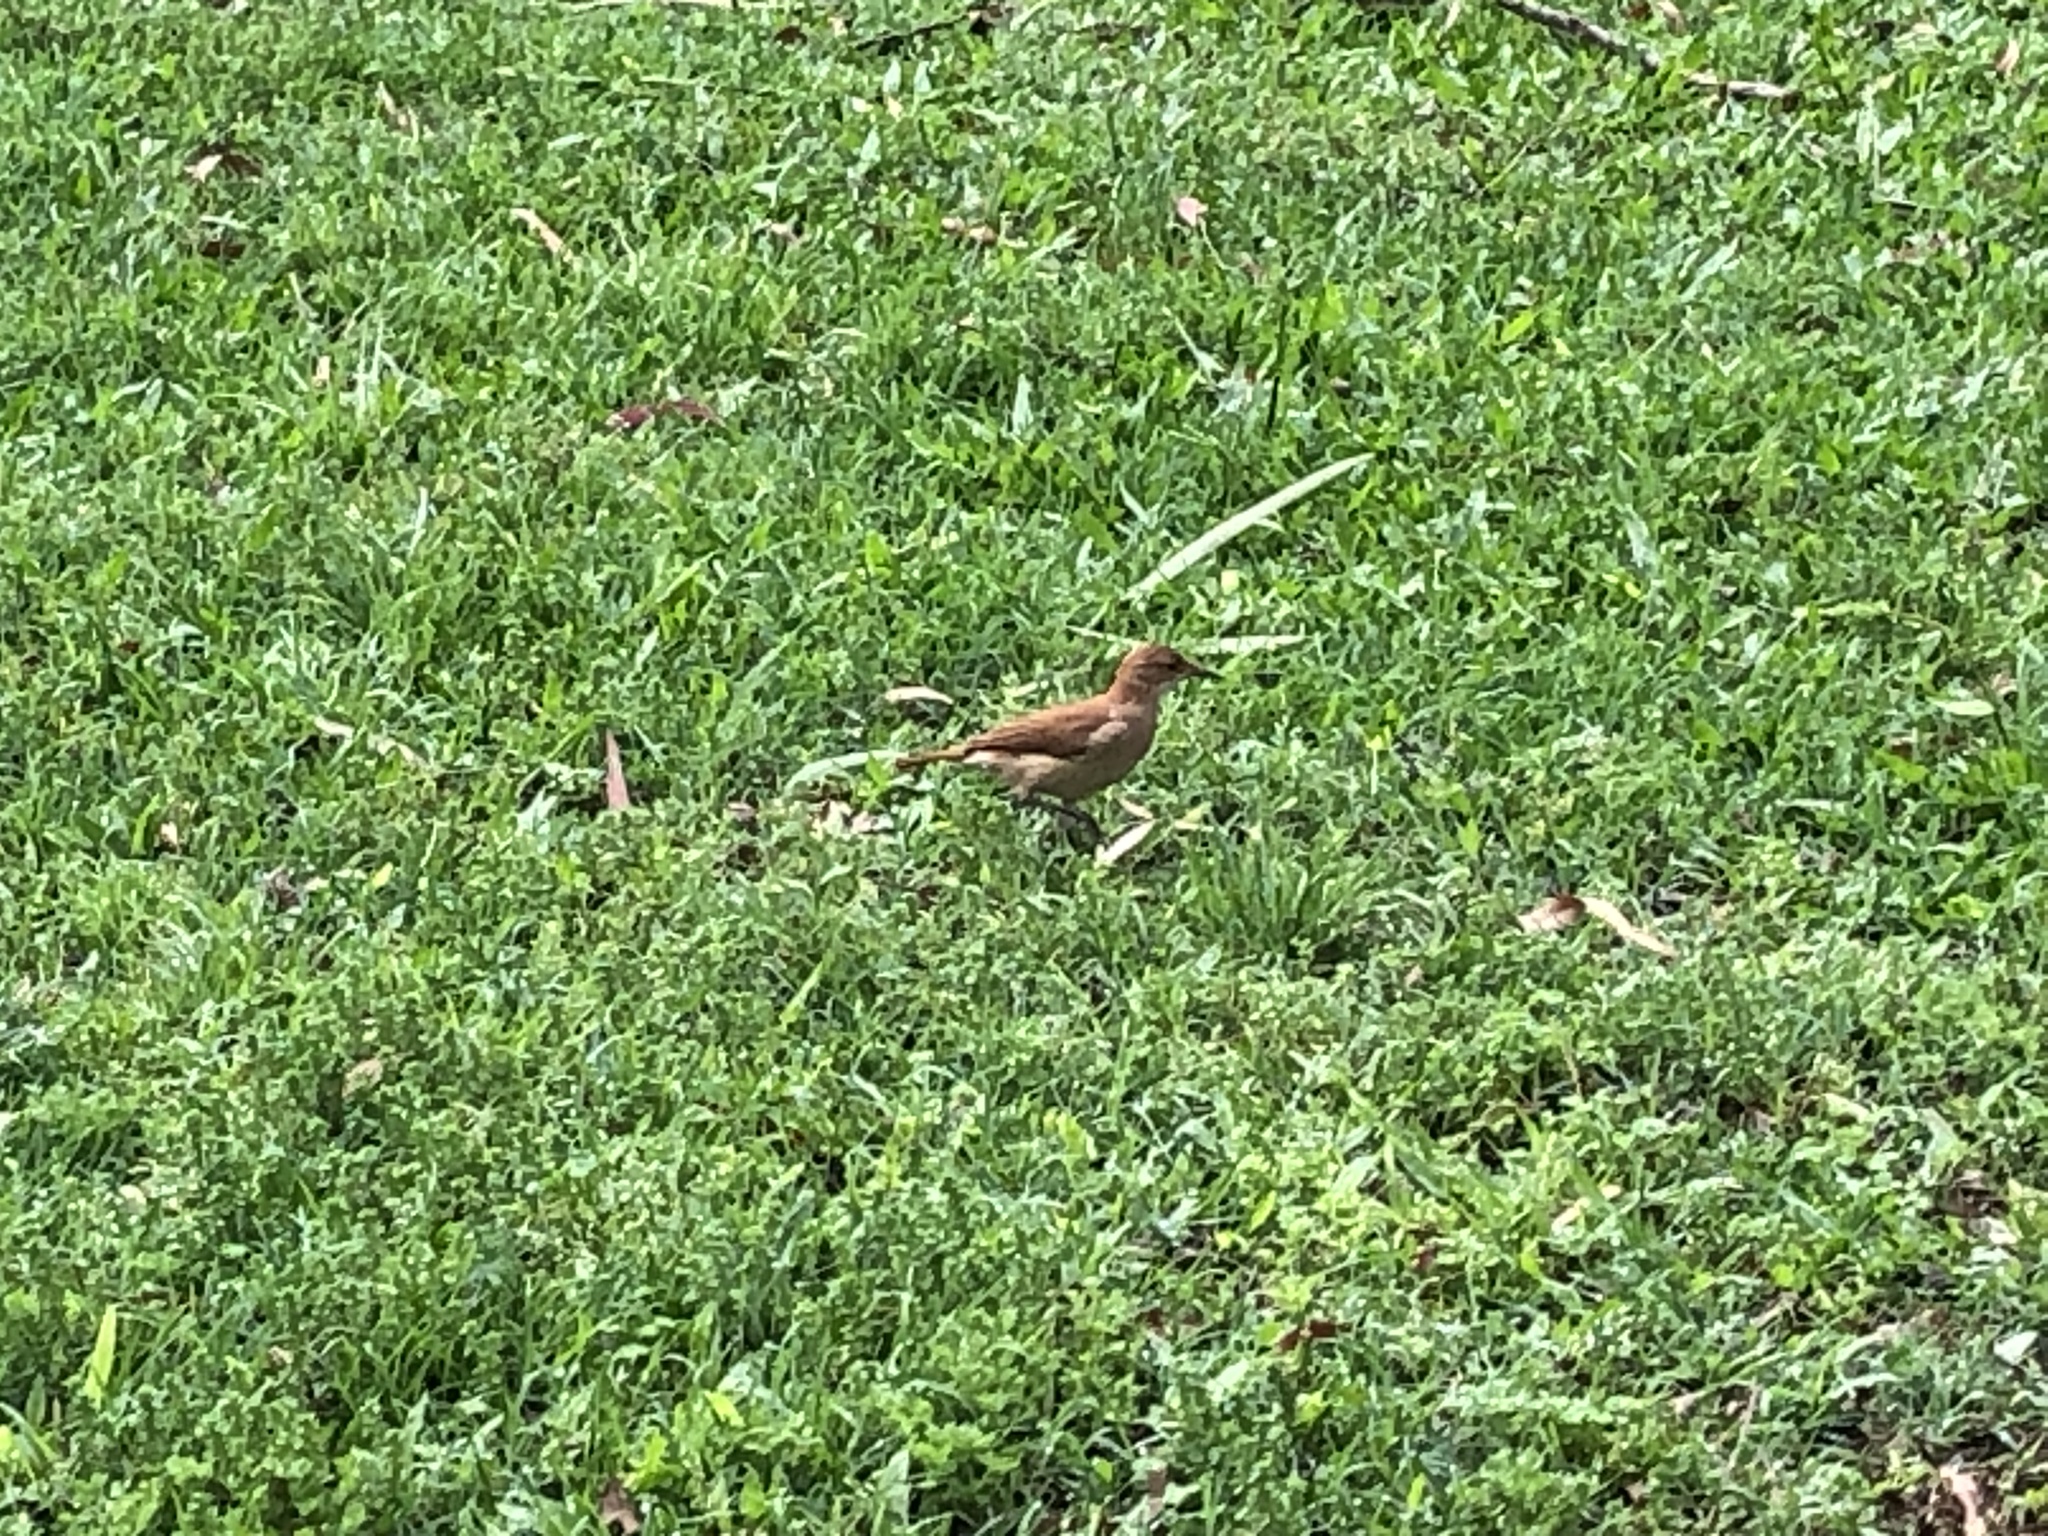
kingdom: Animalia
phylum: Chordata
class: Aves
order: Passeriformes
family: Furnariidae
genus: Furnarius
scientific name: Furnarius rufus
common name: Rufous hornero
